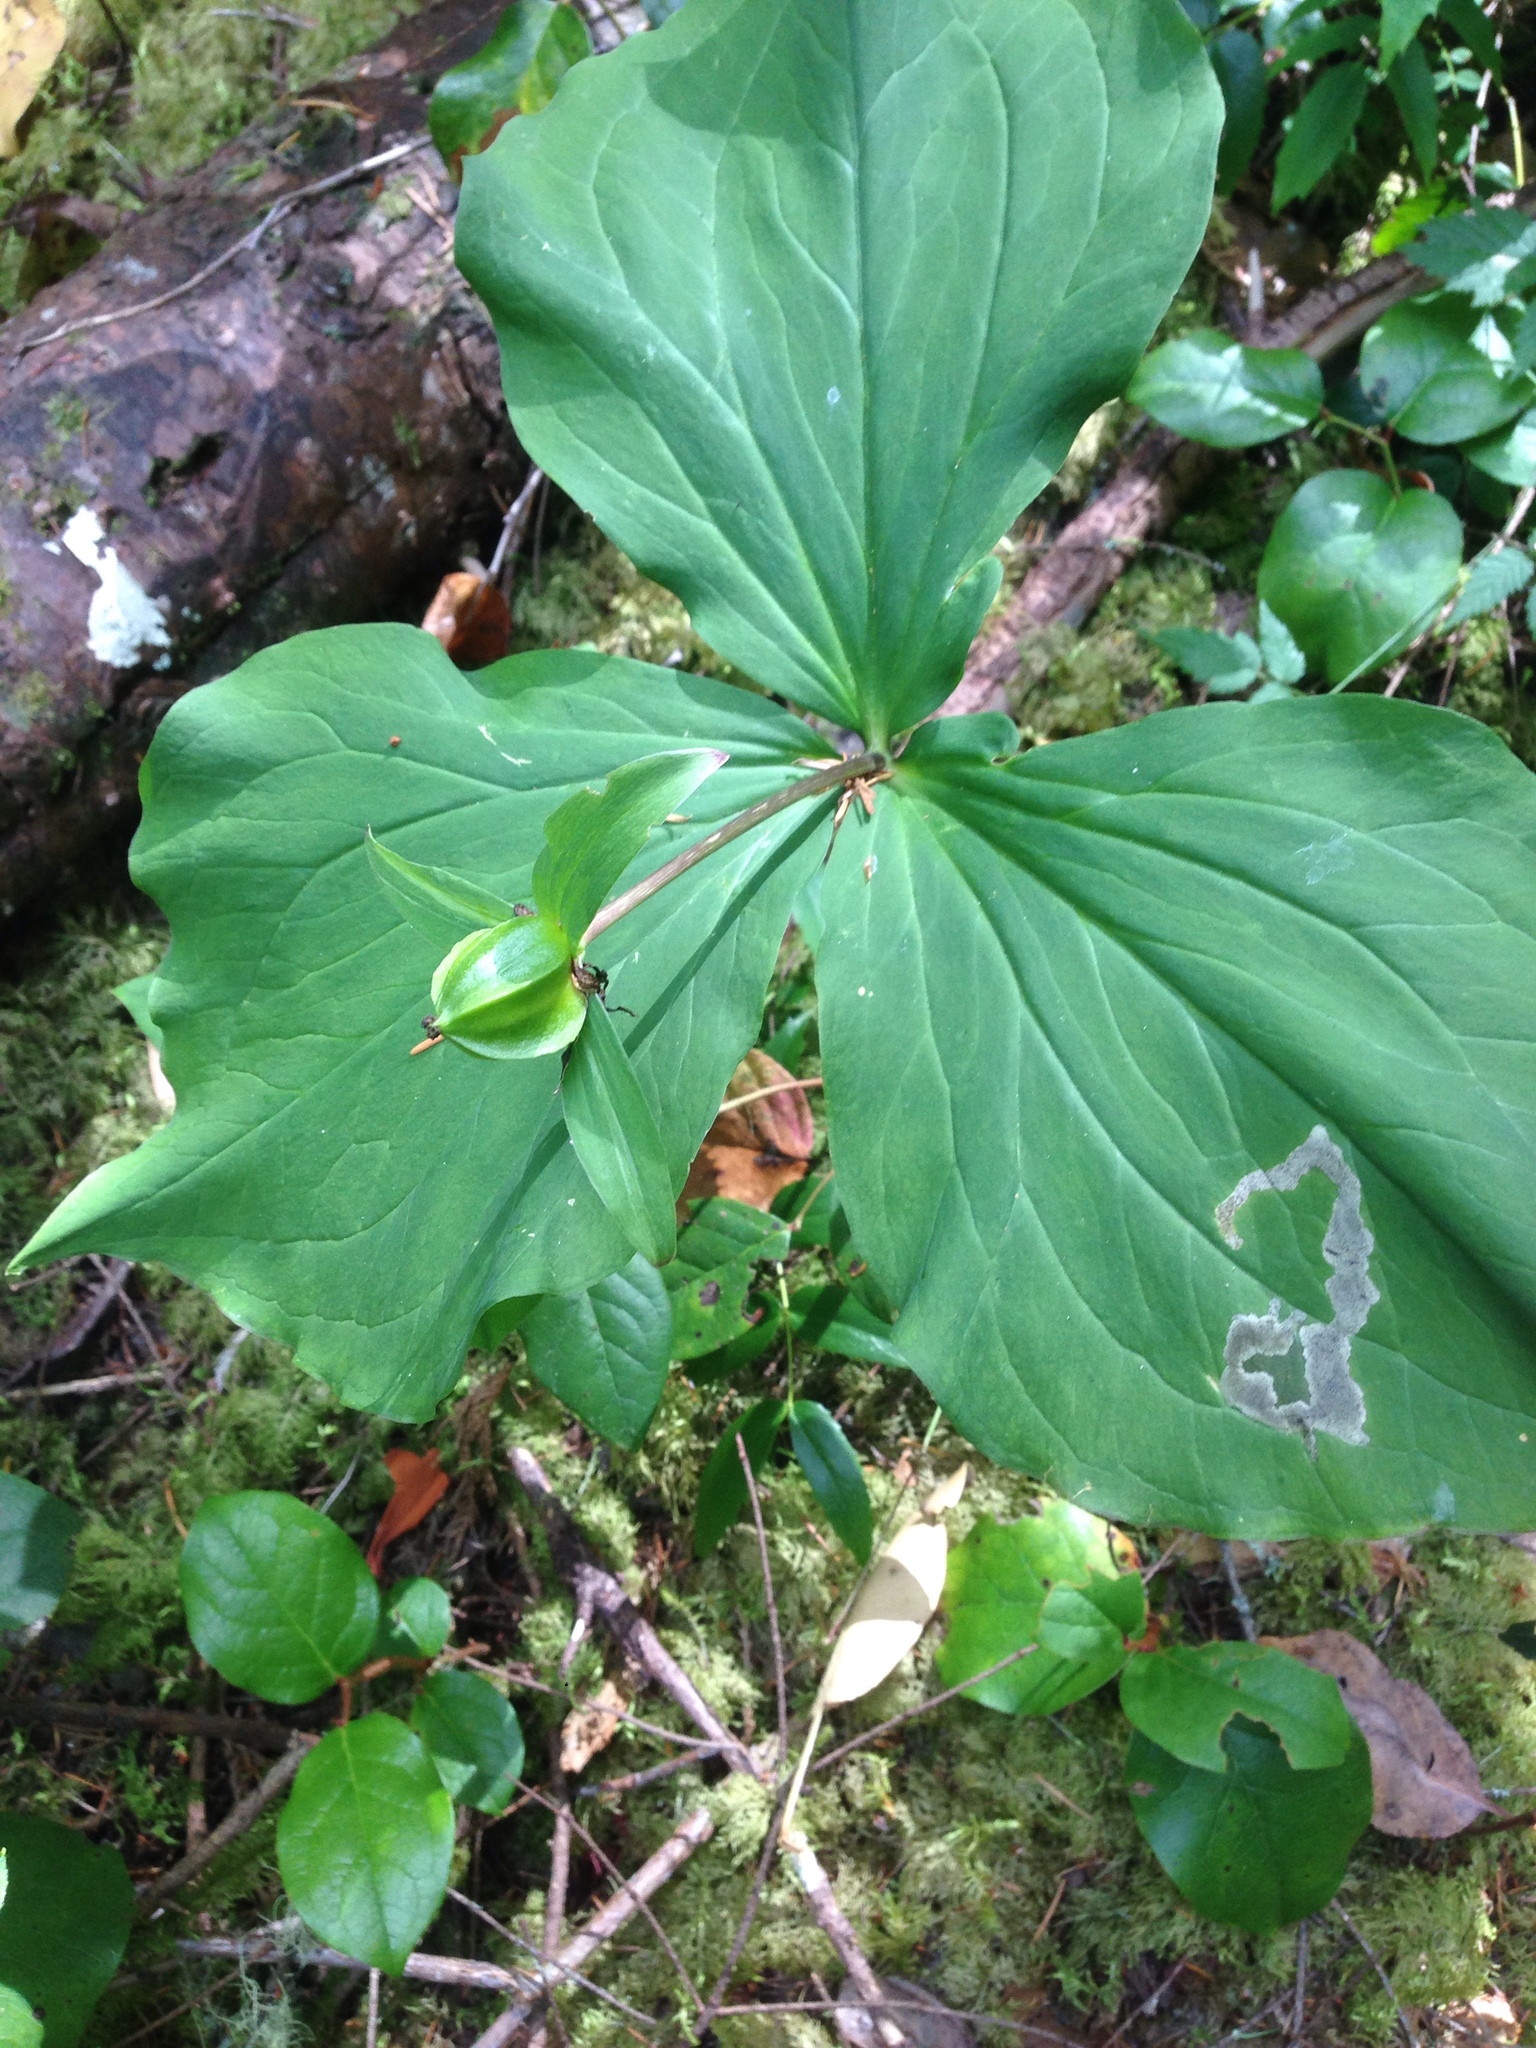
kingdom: Plantae
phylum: Tracheophyta
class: Liliopsida
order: Liliales
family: Melanthiaceae
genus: Trillium
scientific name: Trillium ovatum
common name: Pacific trillium
